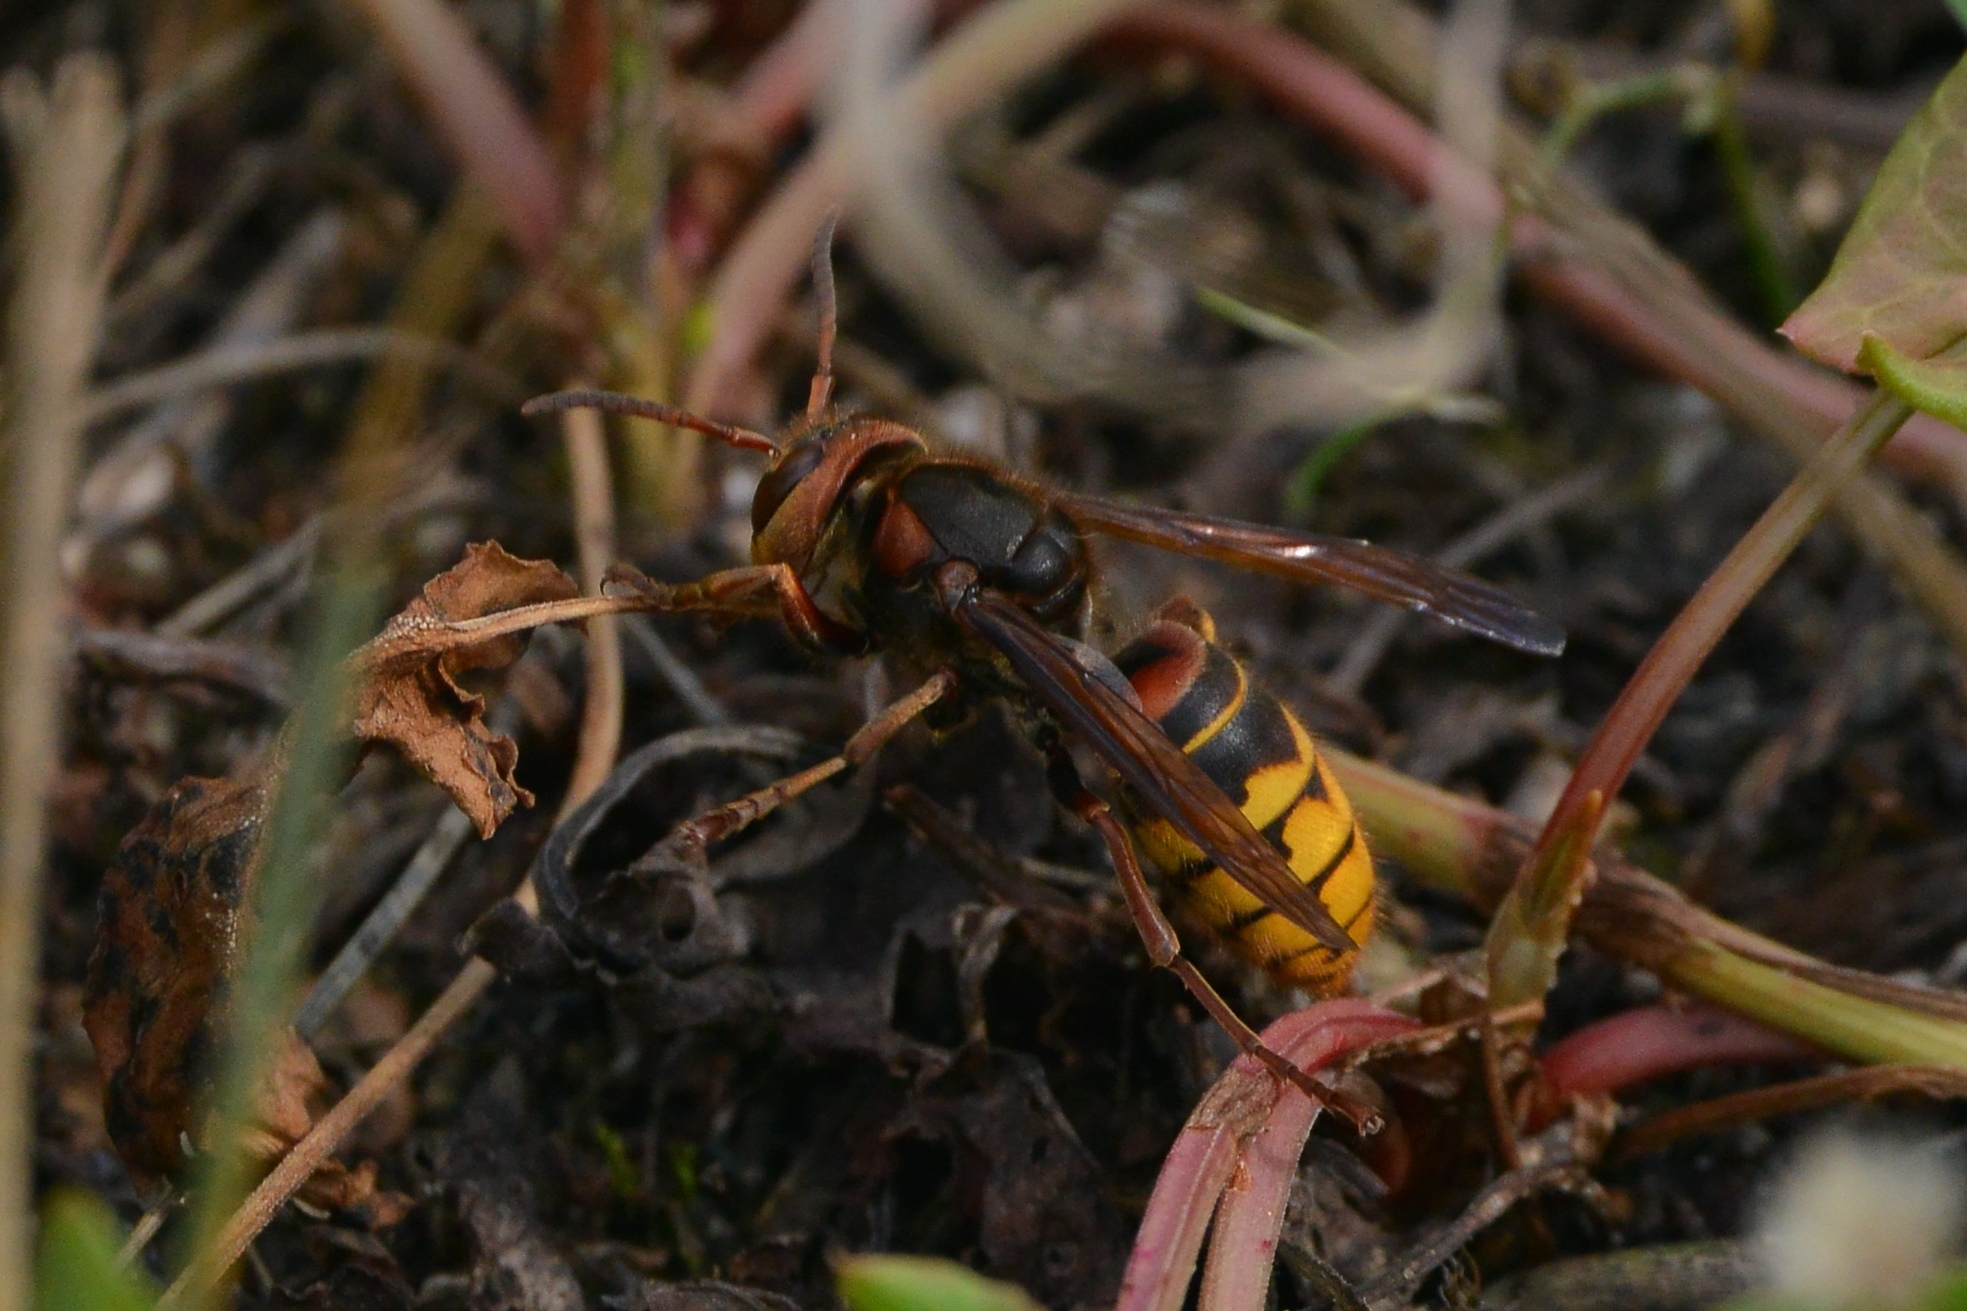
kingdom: Animalia
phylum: Arthropoda
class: Insecta
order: Hymenoptera
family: Vespidae
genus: Vespa
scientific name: Vespa crabro
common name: Hornet
